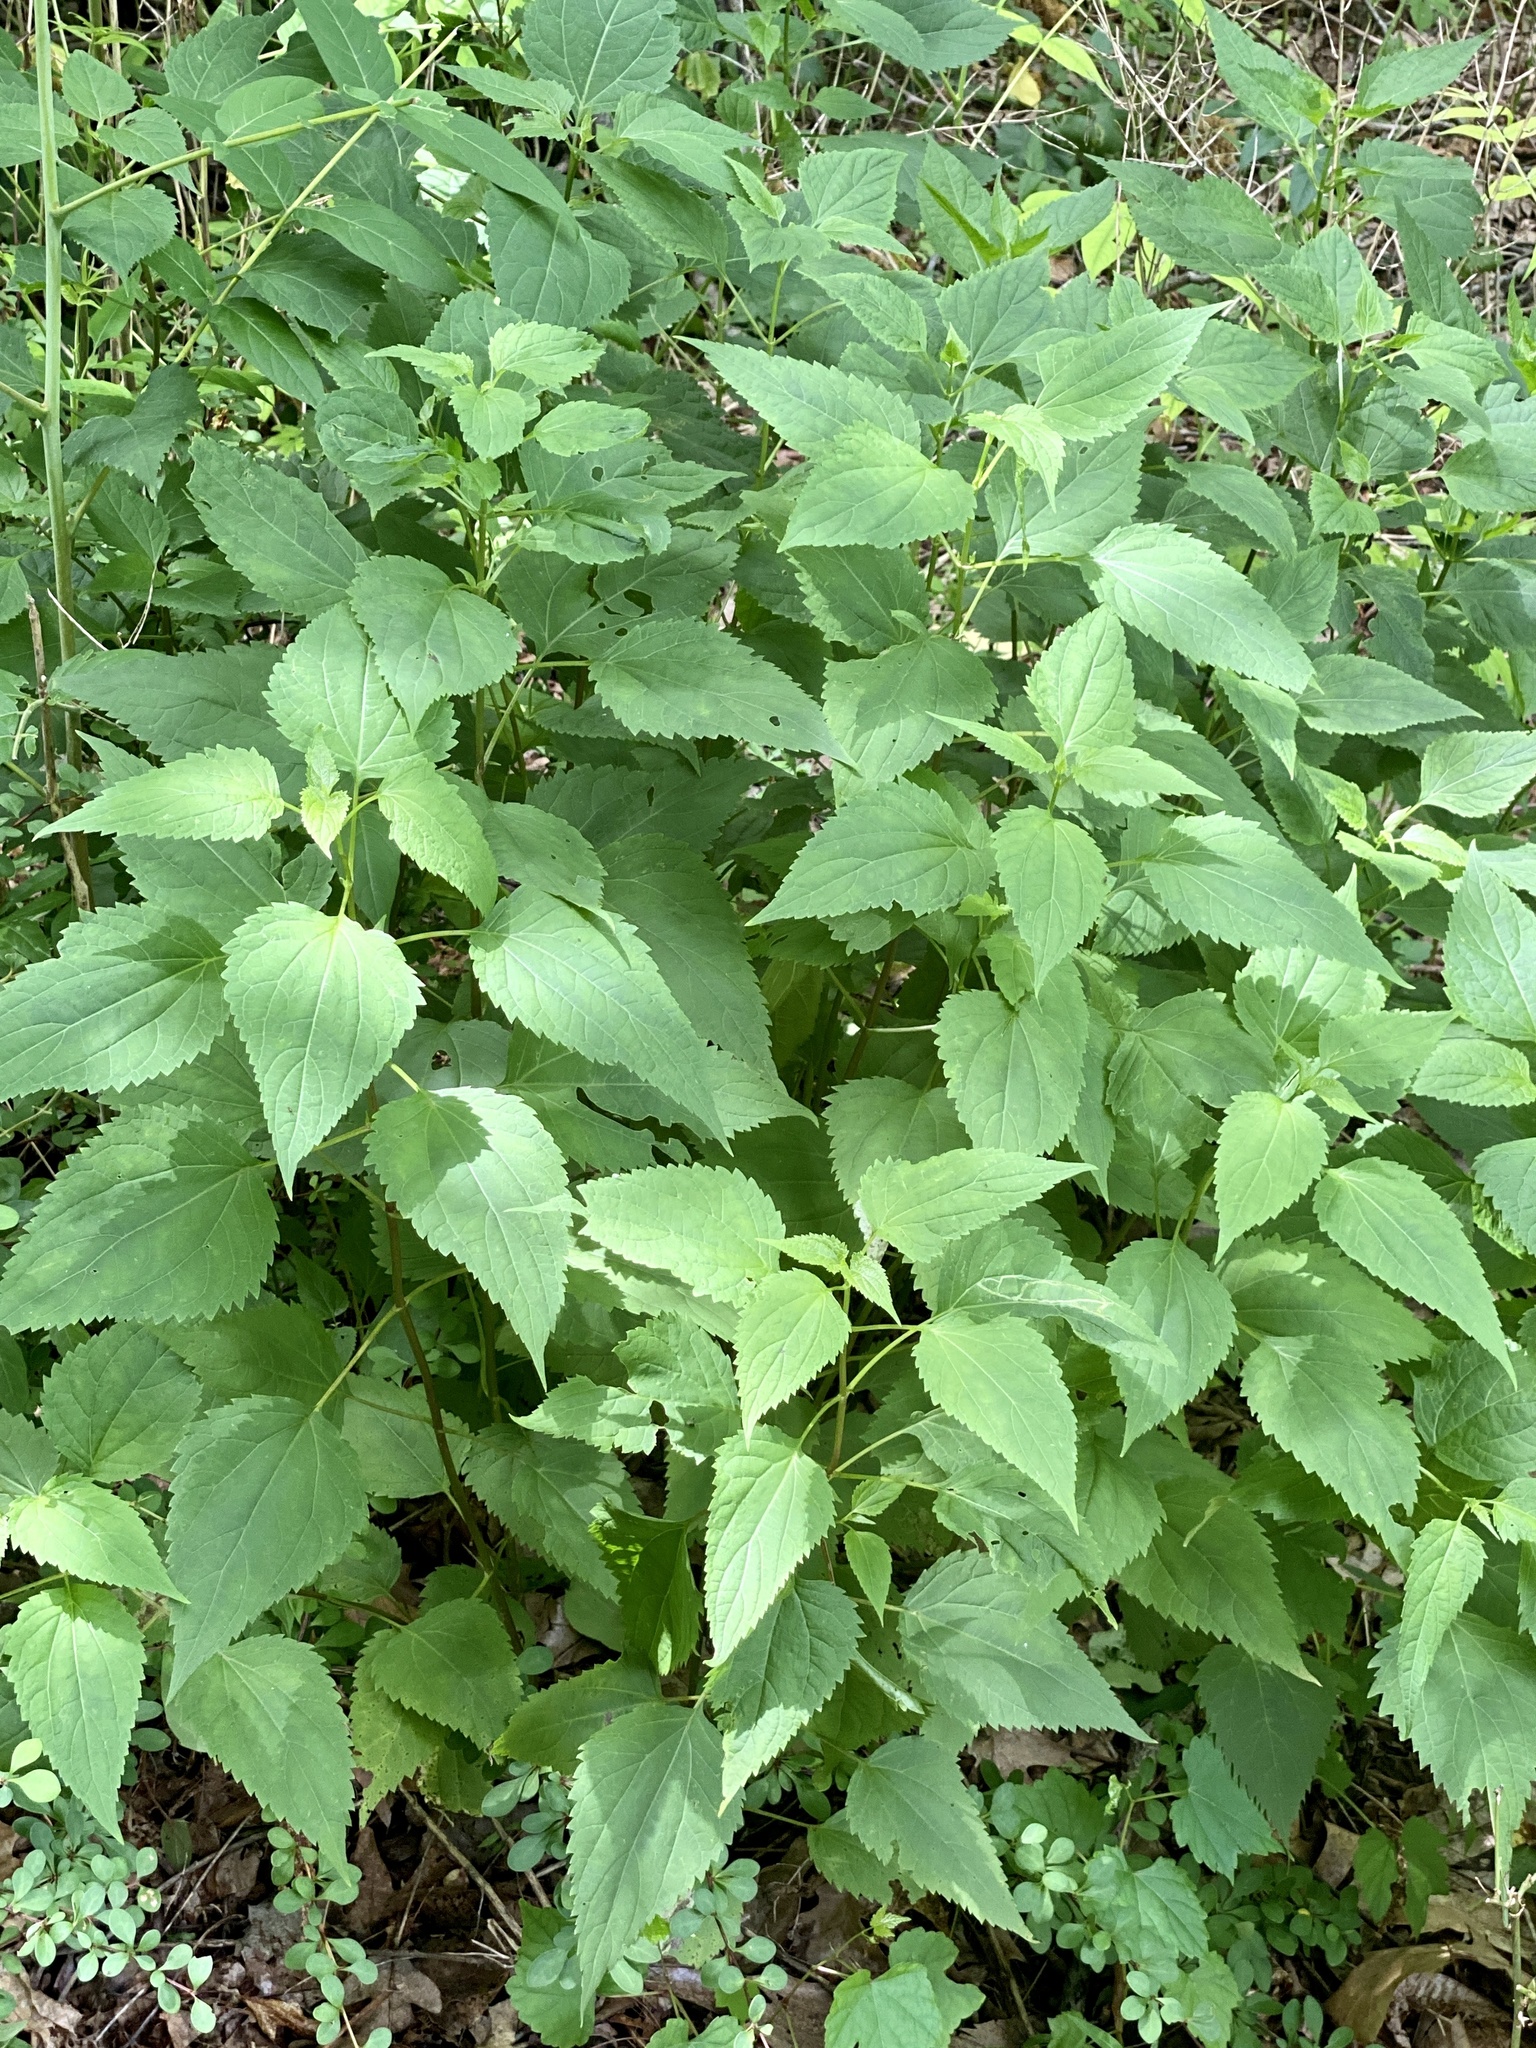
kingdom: Plantae
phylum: Tracheophyta
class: Magnoliopsida
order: Asterales
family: Asteraceae
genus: Ageratina
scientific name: Ageratina altissima
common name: White snakeroot
